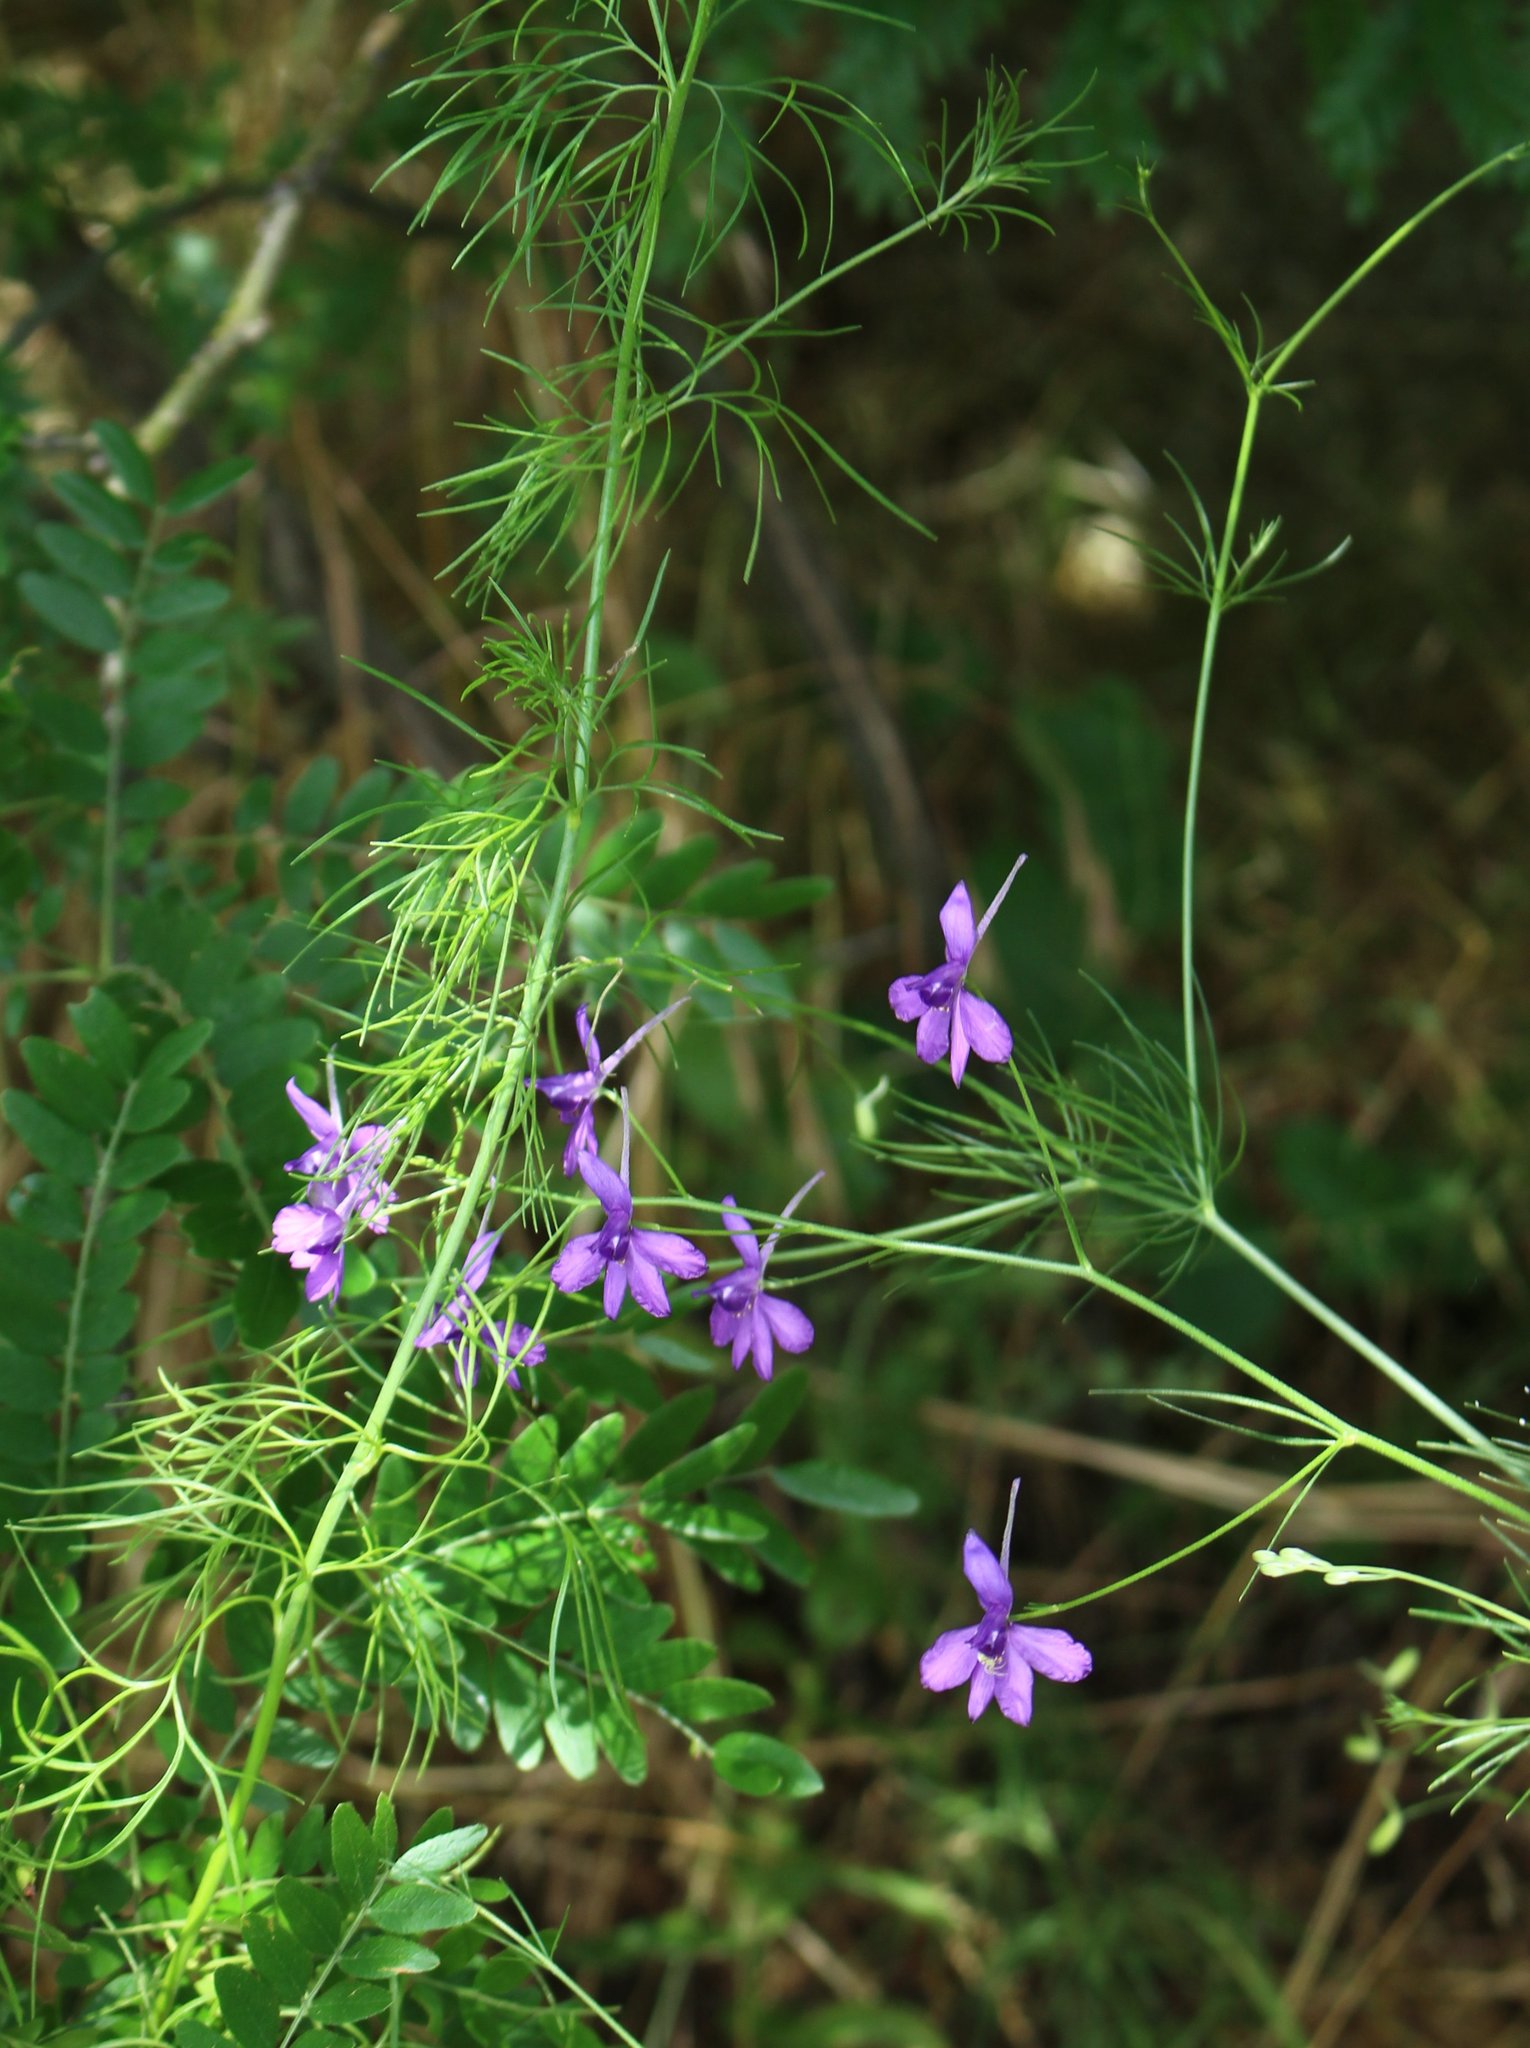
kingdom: Plantae
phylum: Tracheophyta
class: Magnoliopsida
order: Ranunculales
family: Ranunculaceae
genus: Delphinium
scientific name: Delphinium consolida
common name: Branching larkspur
